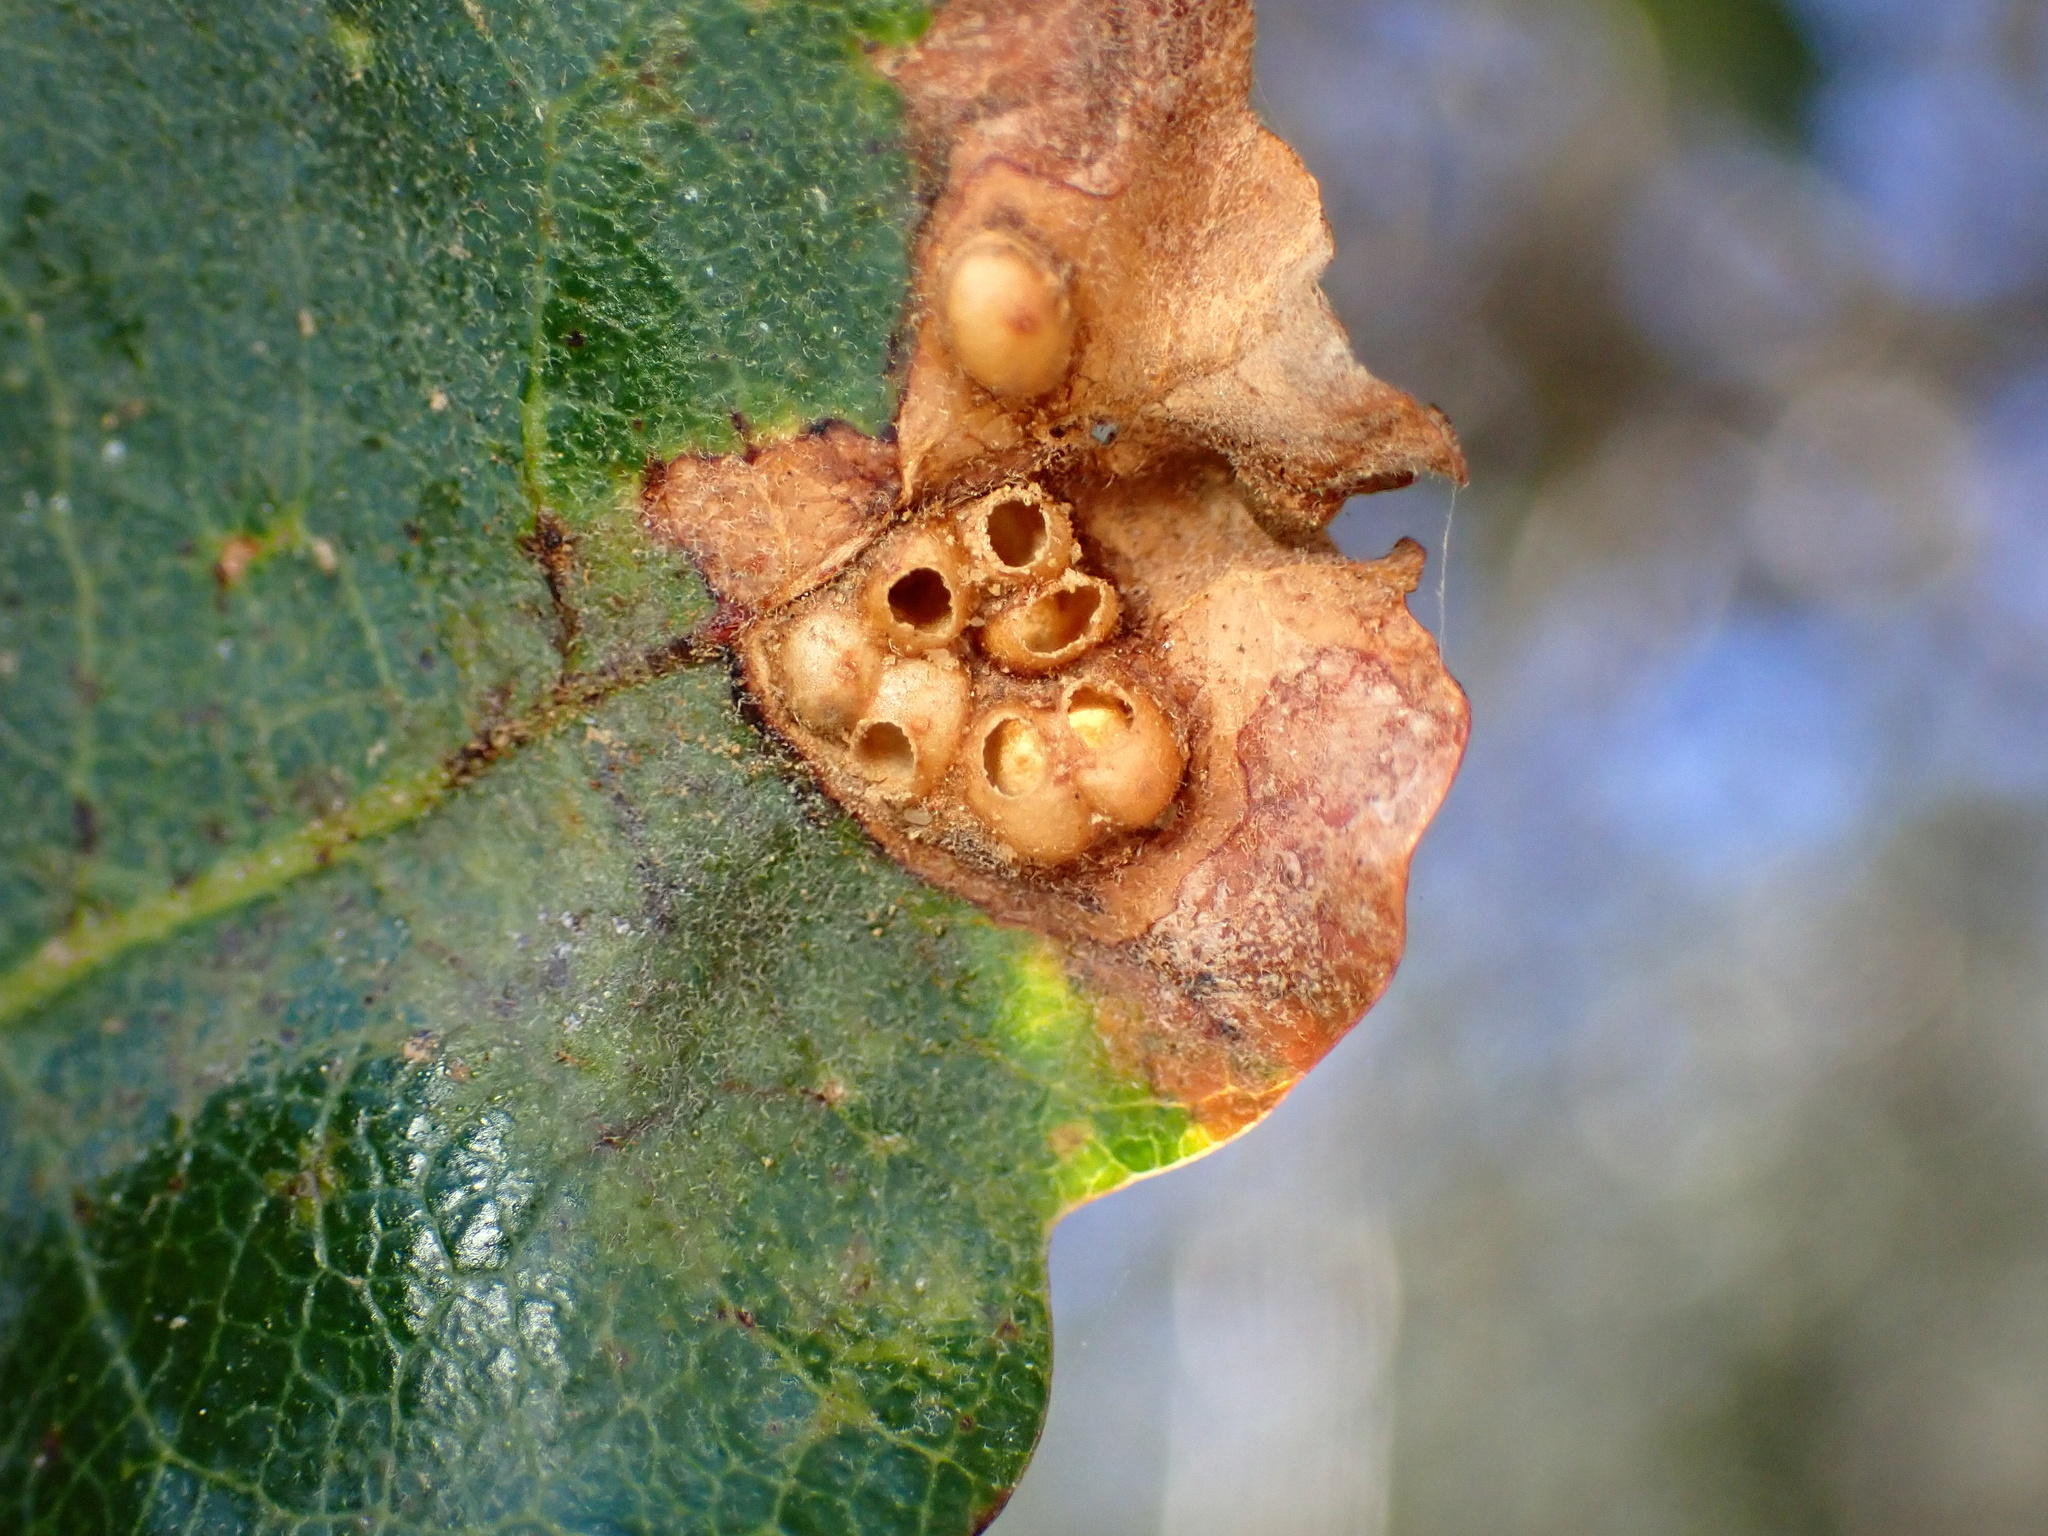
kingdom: Animalia
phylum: Arthropoda
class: Insecta
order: Hymenoptera
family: Cynipidae
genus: Neuroterus
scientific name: Neuroterus saltarius
